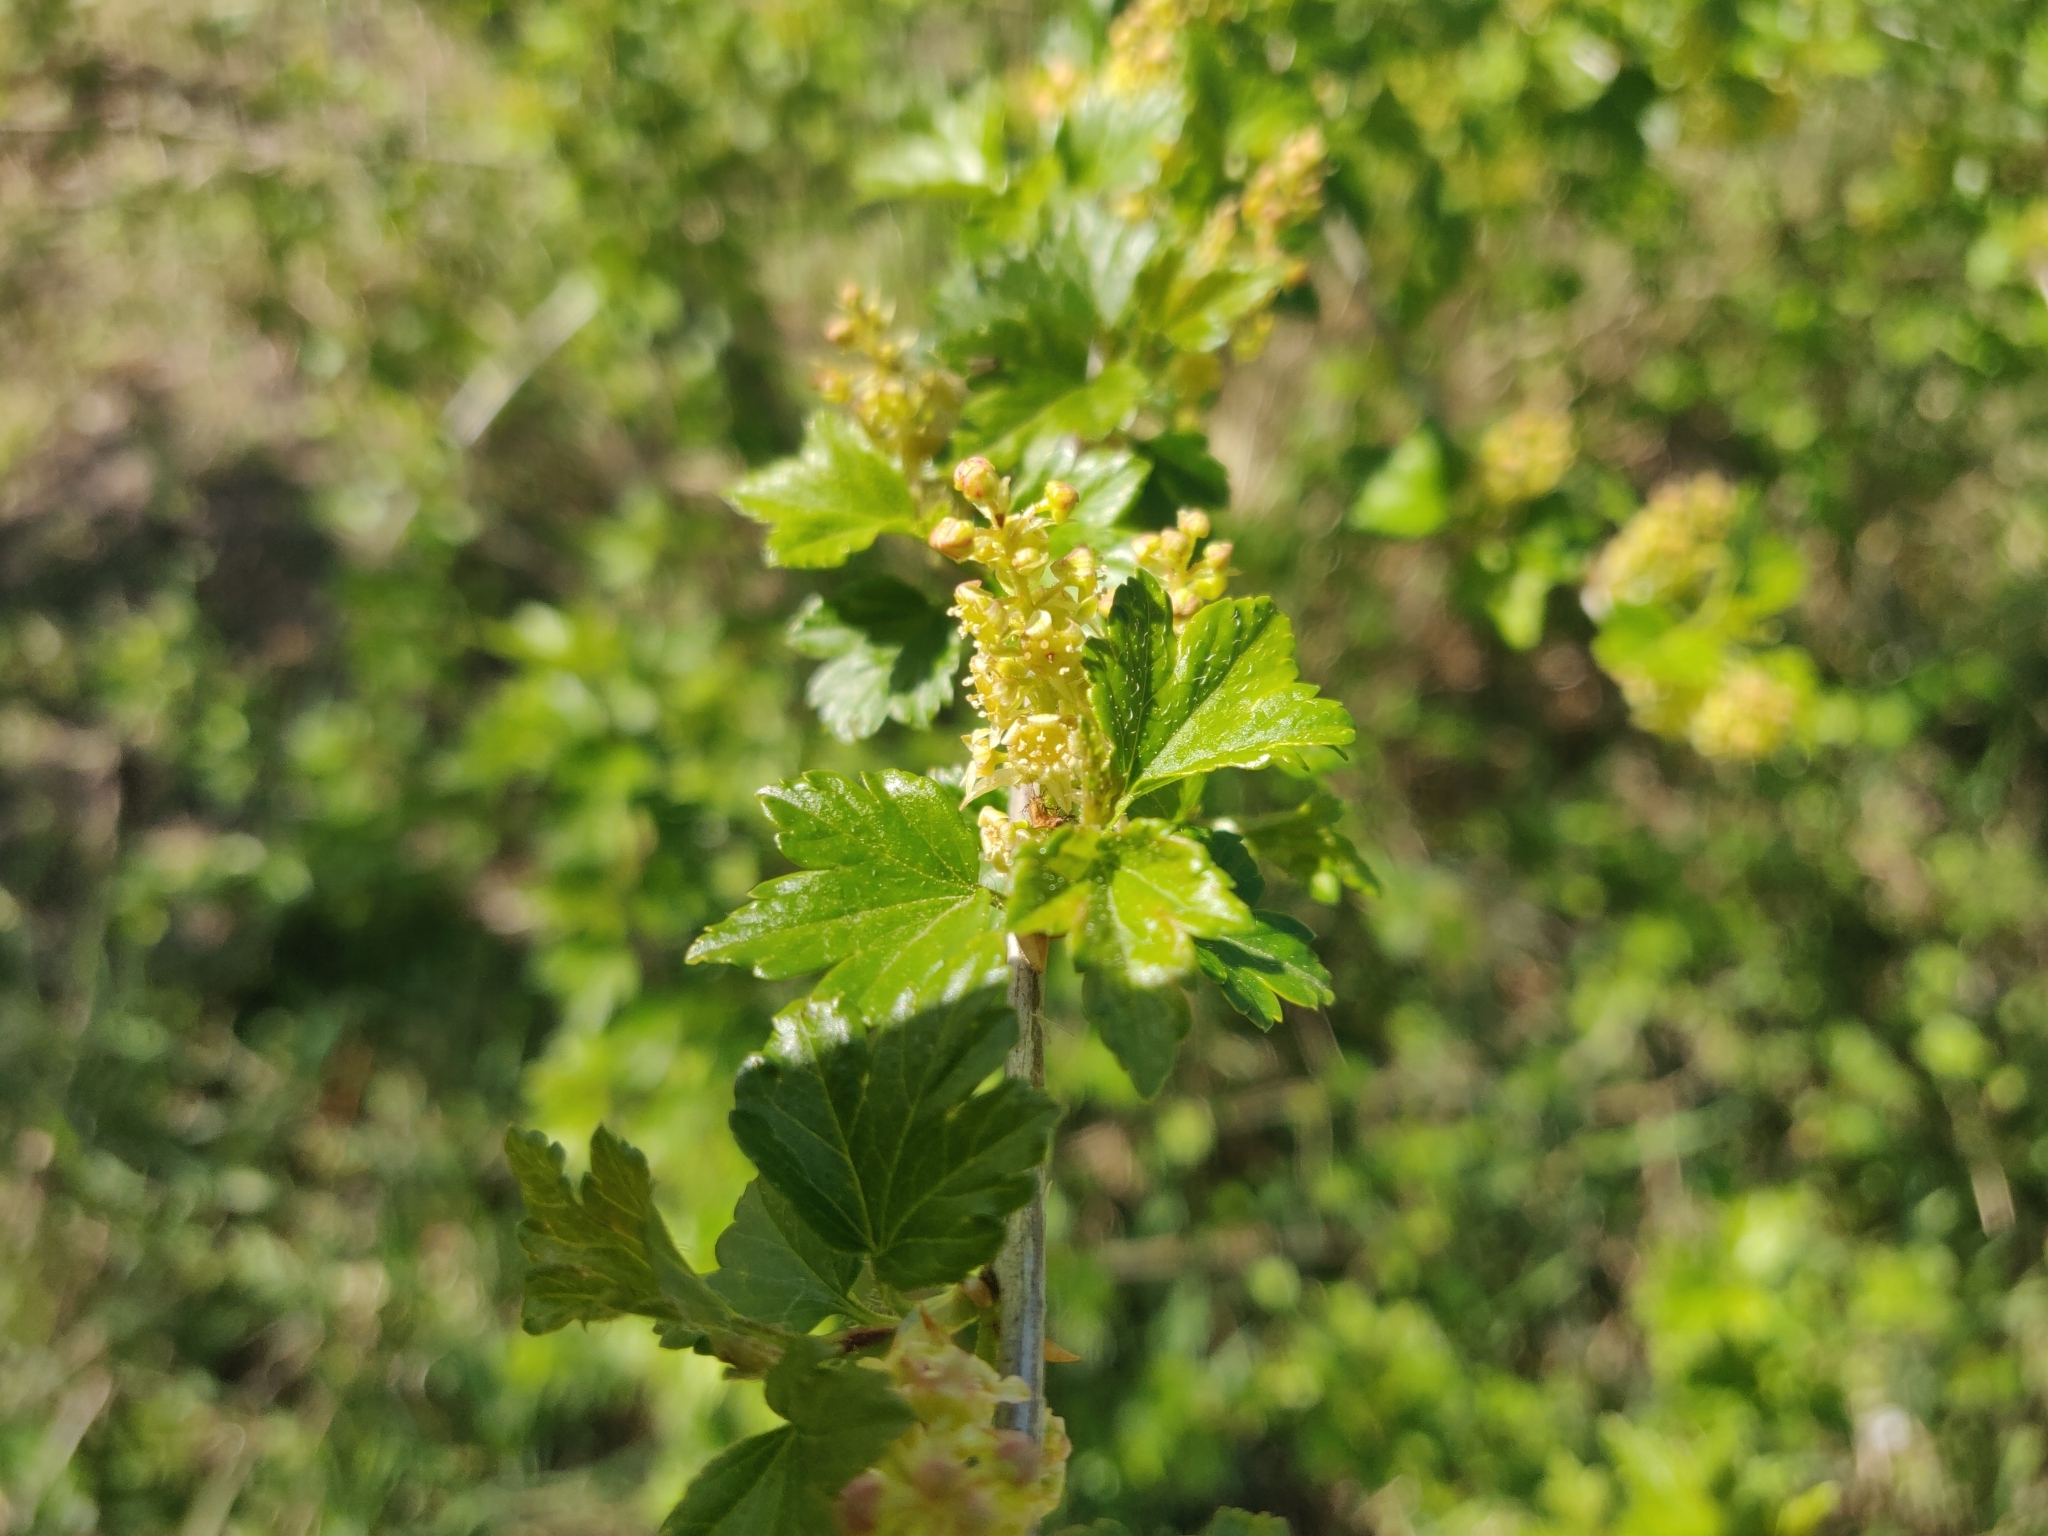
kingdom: Plantae
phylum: Tracheophyta
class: Magnoliopsida
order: Saxifragales
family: Grossulariaceae
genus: Ribes
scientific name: Ribes alpinum
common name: Alpine currant
